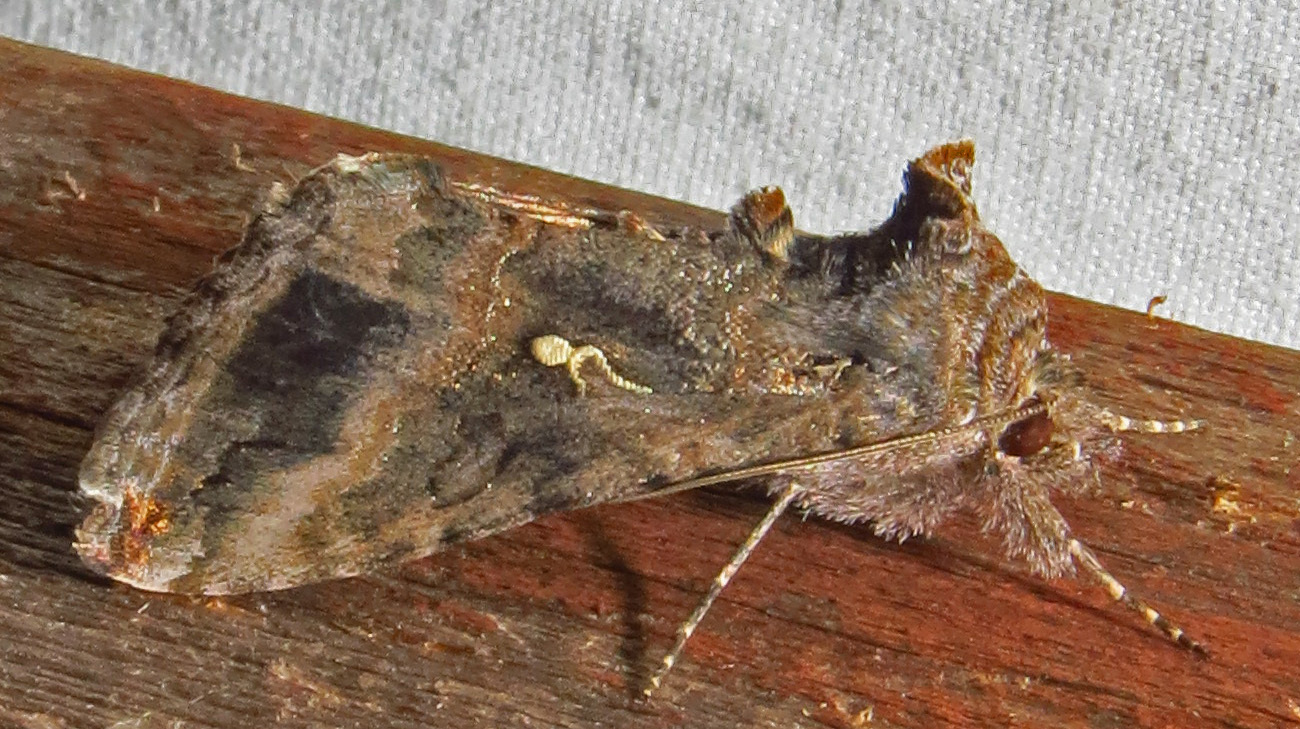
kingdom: Animalia
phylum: Arthropoda
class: Insecta
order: Lepidoptera
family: Noctuidae
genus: Rachiplusia
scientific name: Rachiplusia ou
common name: Gray looper moth
